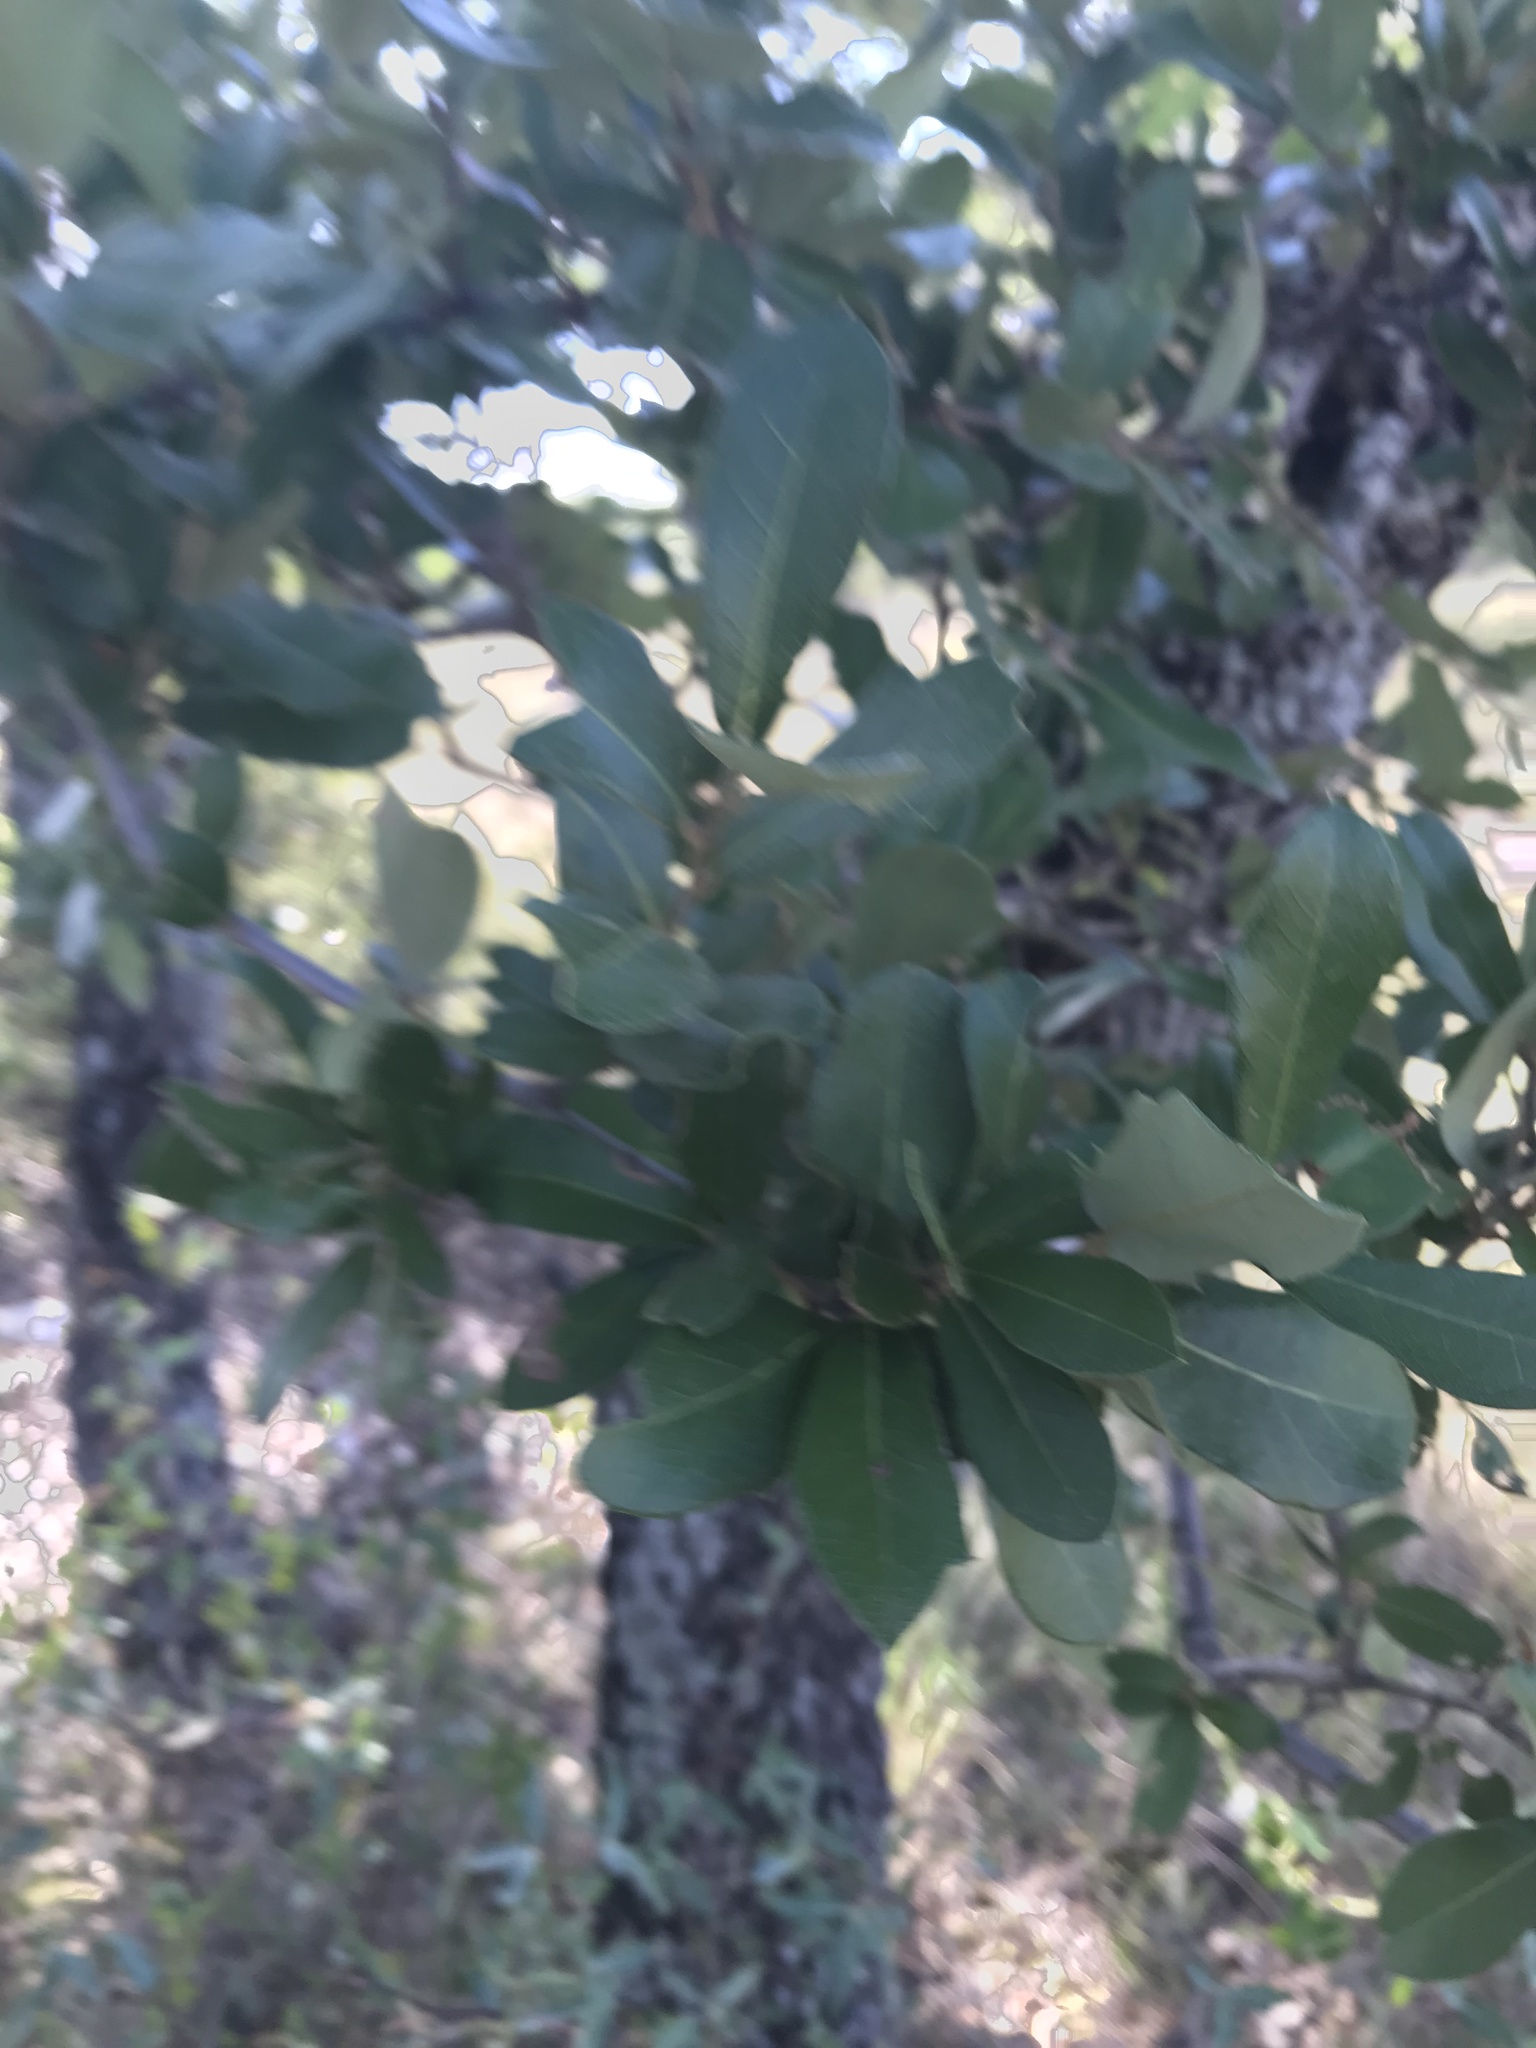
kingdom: Plantae
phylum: Tracheophyta
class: Magnoliopsida
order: Fagales
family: Fagaceae
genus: Quercus
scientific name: Quercus fusiformis
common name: Texas live oak
